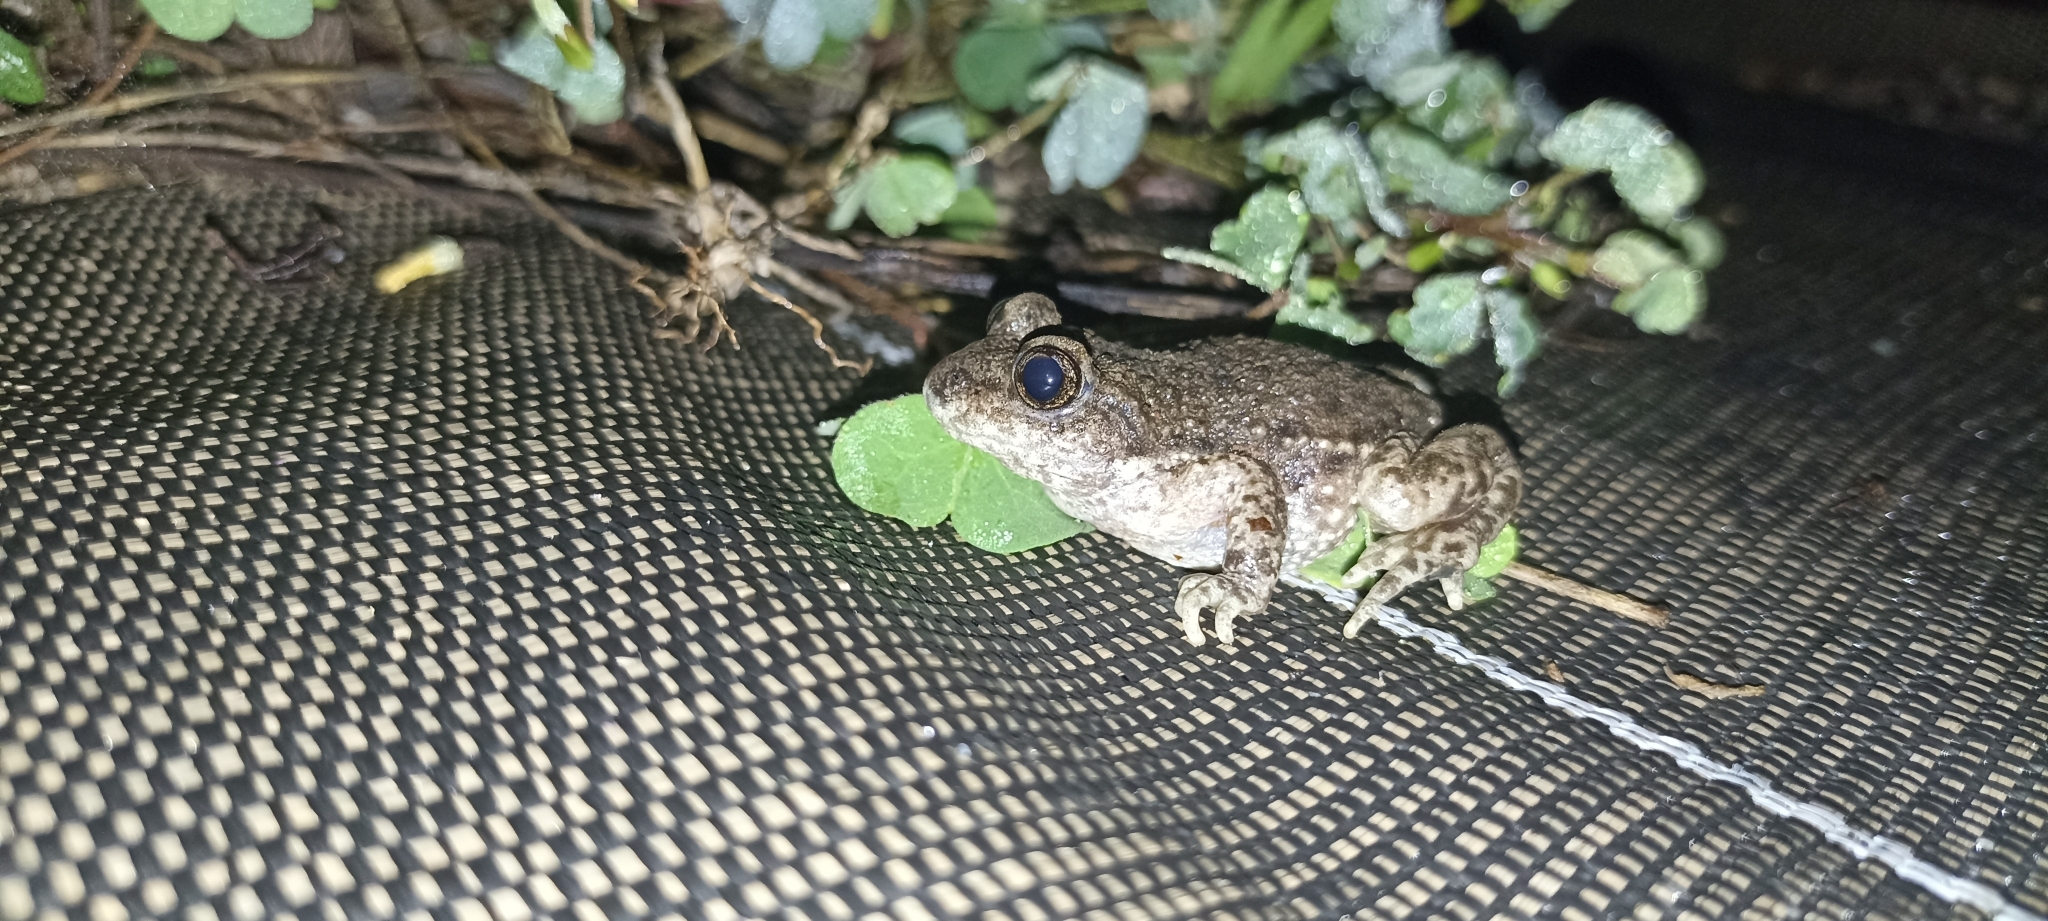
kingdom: Animalia
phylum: Chordata
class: Amphibia
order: Anura
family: Alytidae
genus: Alytes
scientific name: Alytes obstetricans
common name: Midwife toad
